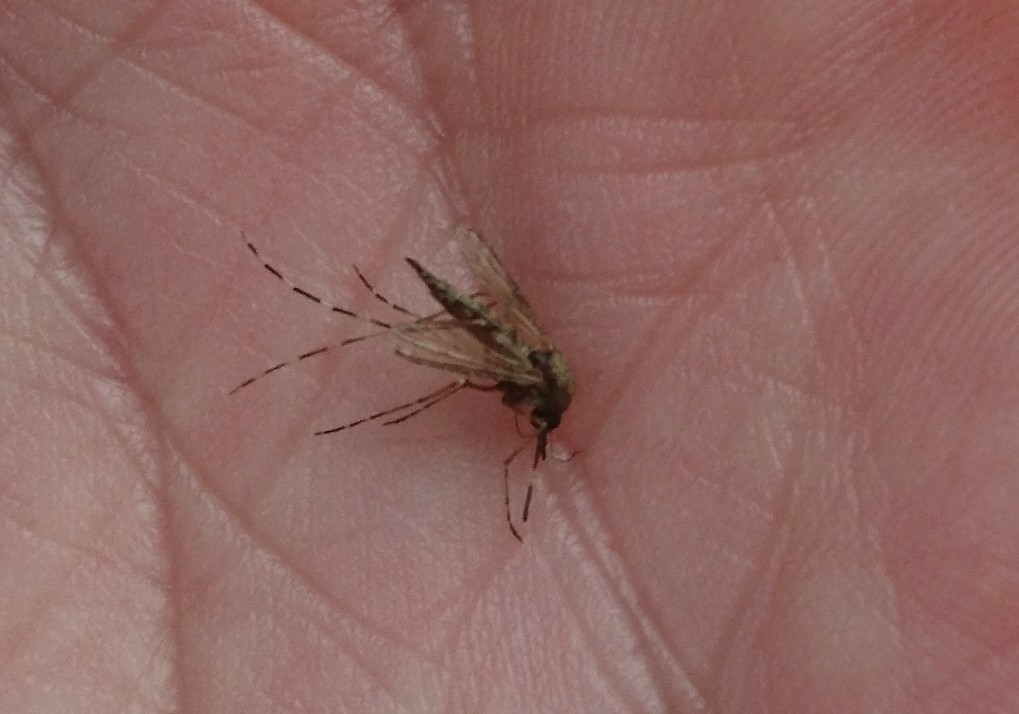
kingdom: Animalia
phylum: Arthropoda
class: Insecta
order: Diptera
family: Culicidae
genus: Aedes
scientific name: Aedes sollicitans
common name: Saltmarsh mosquito
